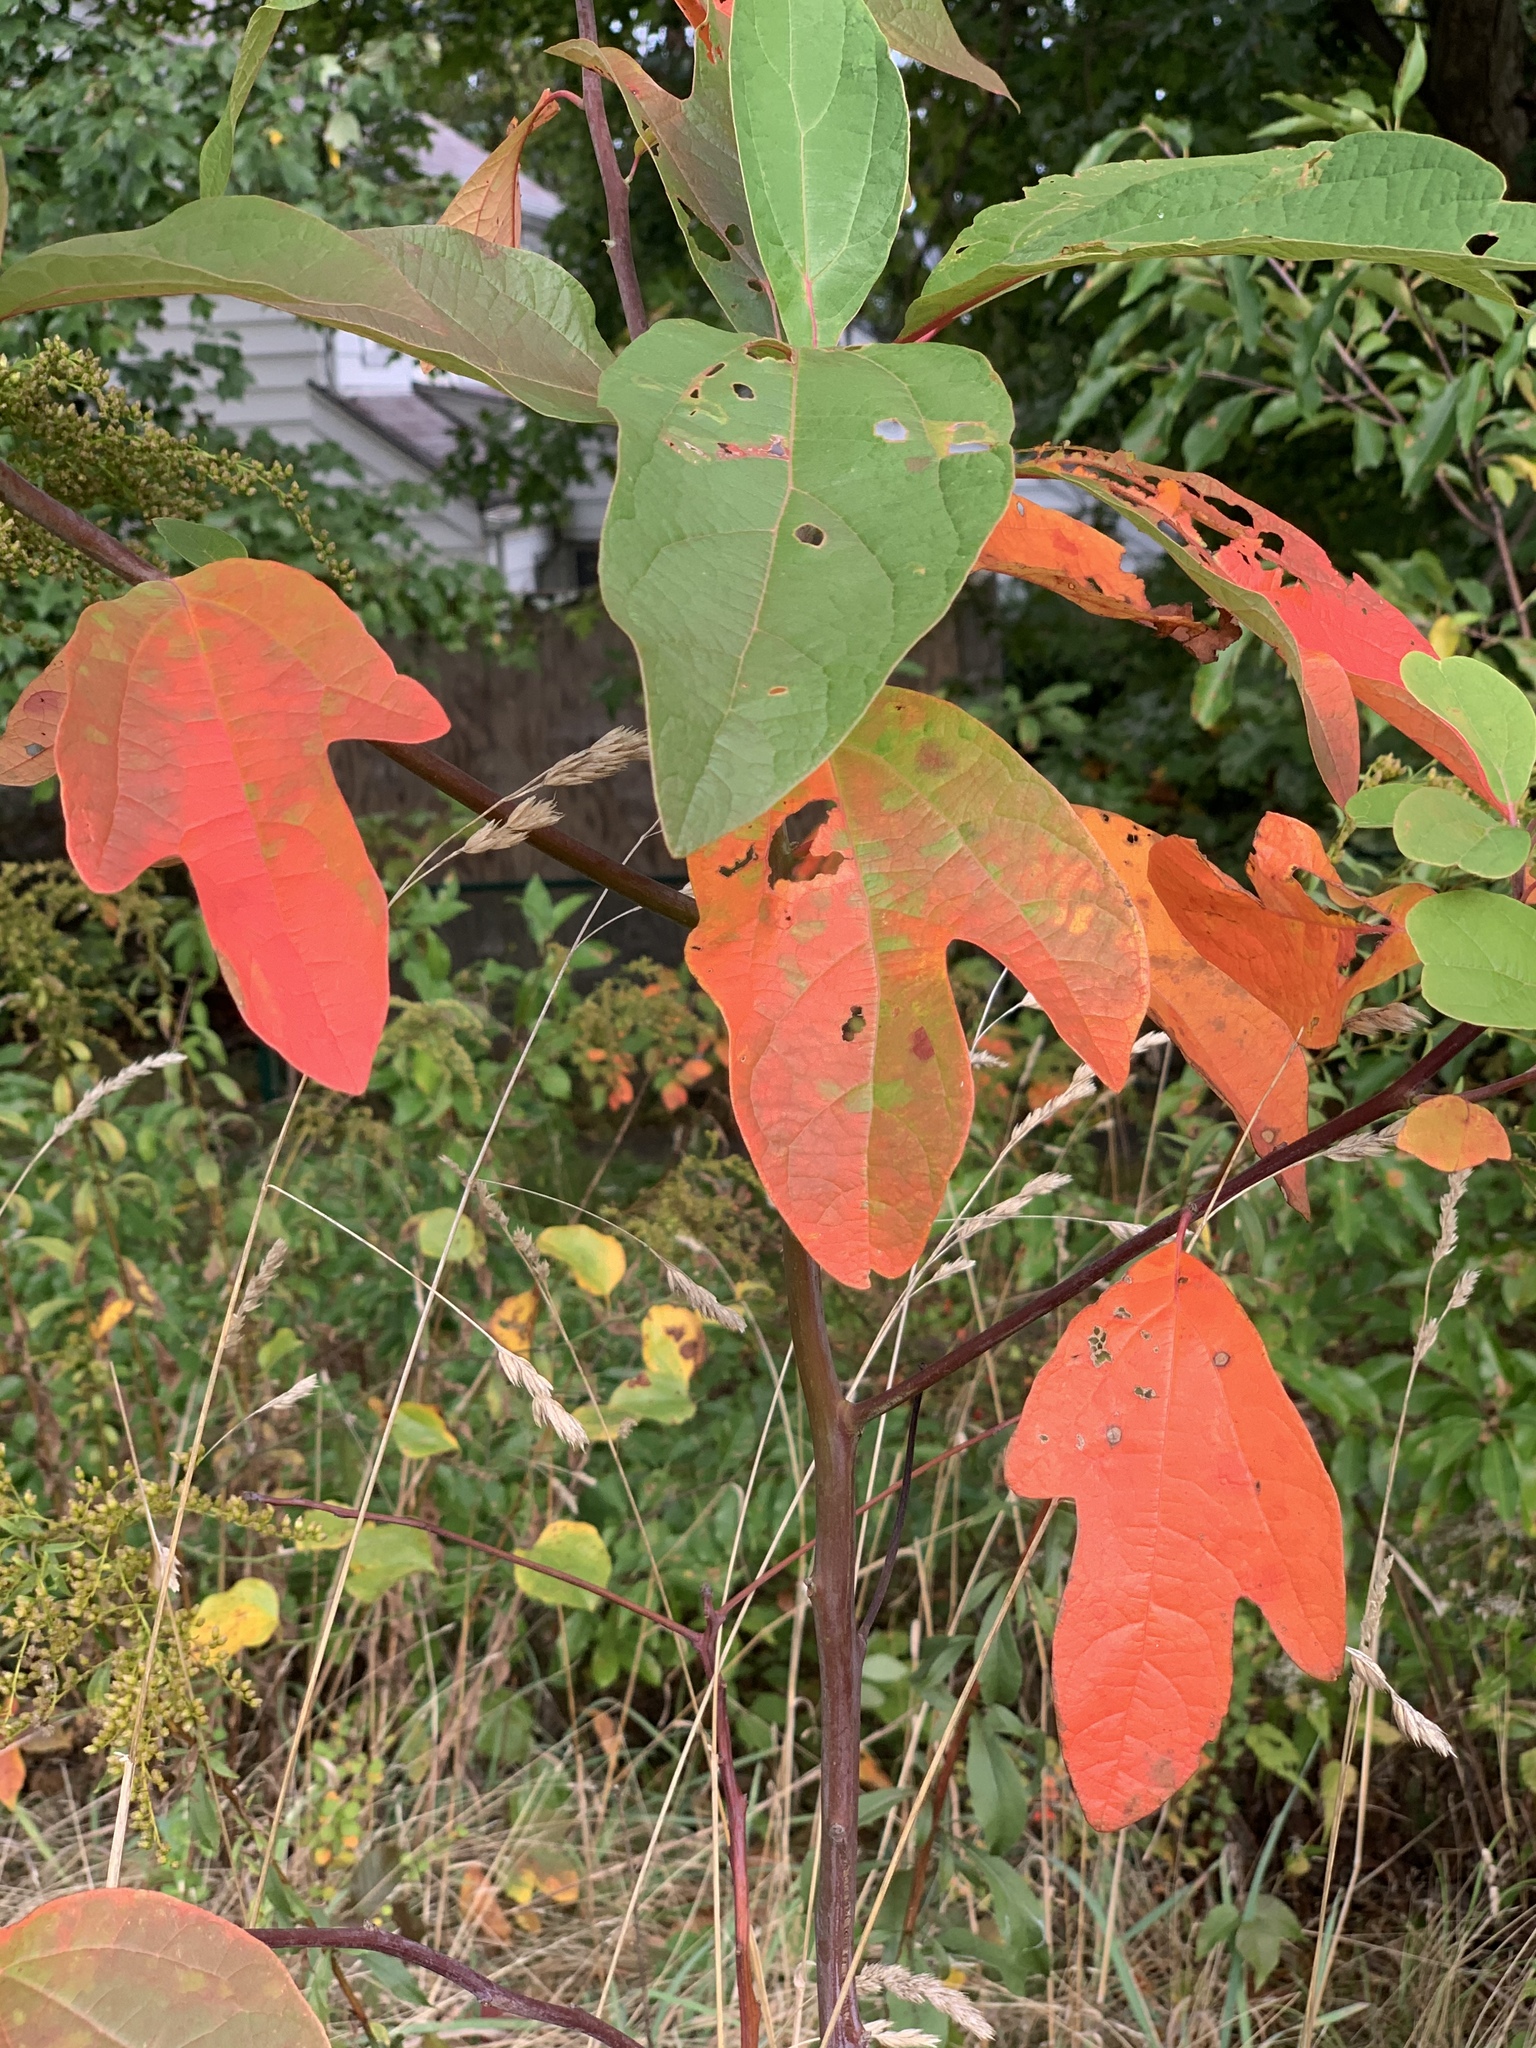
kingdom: Plantae
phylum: Tracheophyta
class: Magnoliopsida
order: Laurales
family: Lauraceae
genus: Sassafras
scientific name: Sassafras albidum
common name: Sassafras
